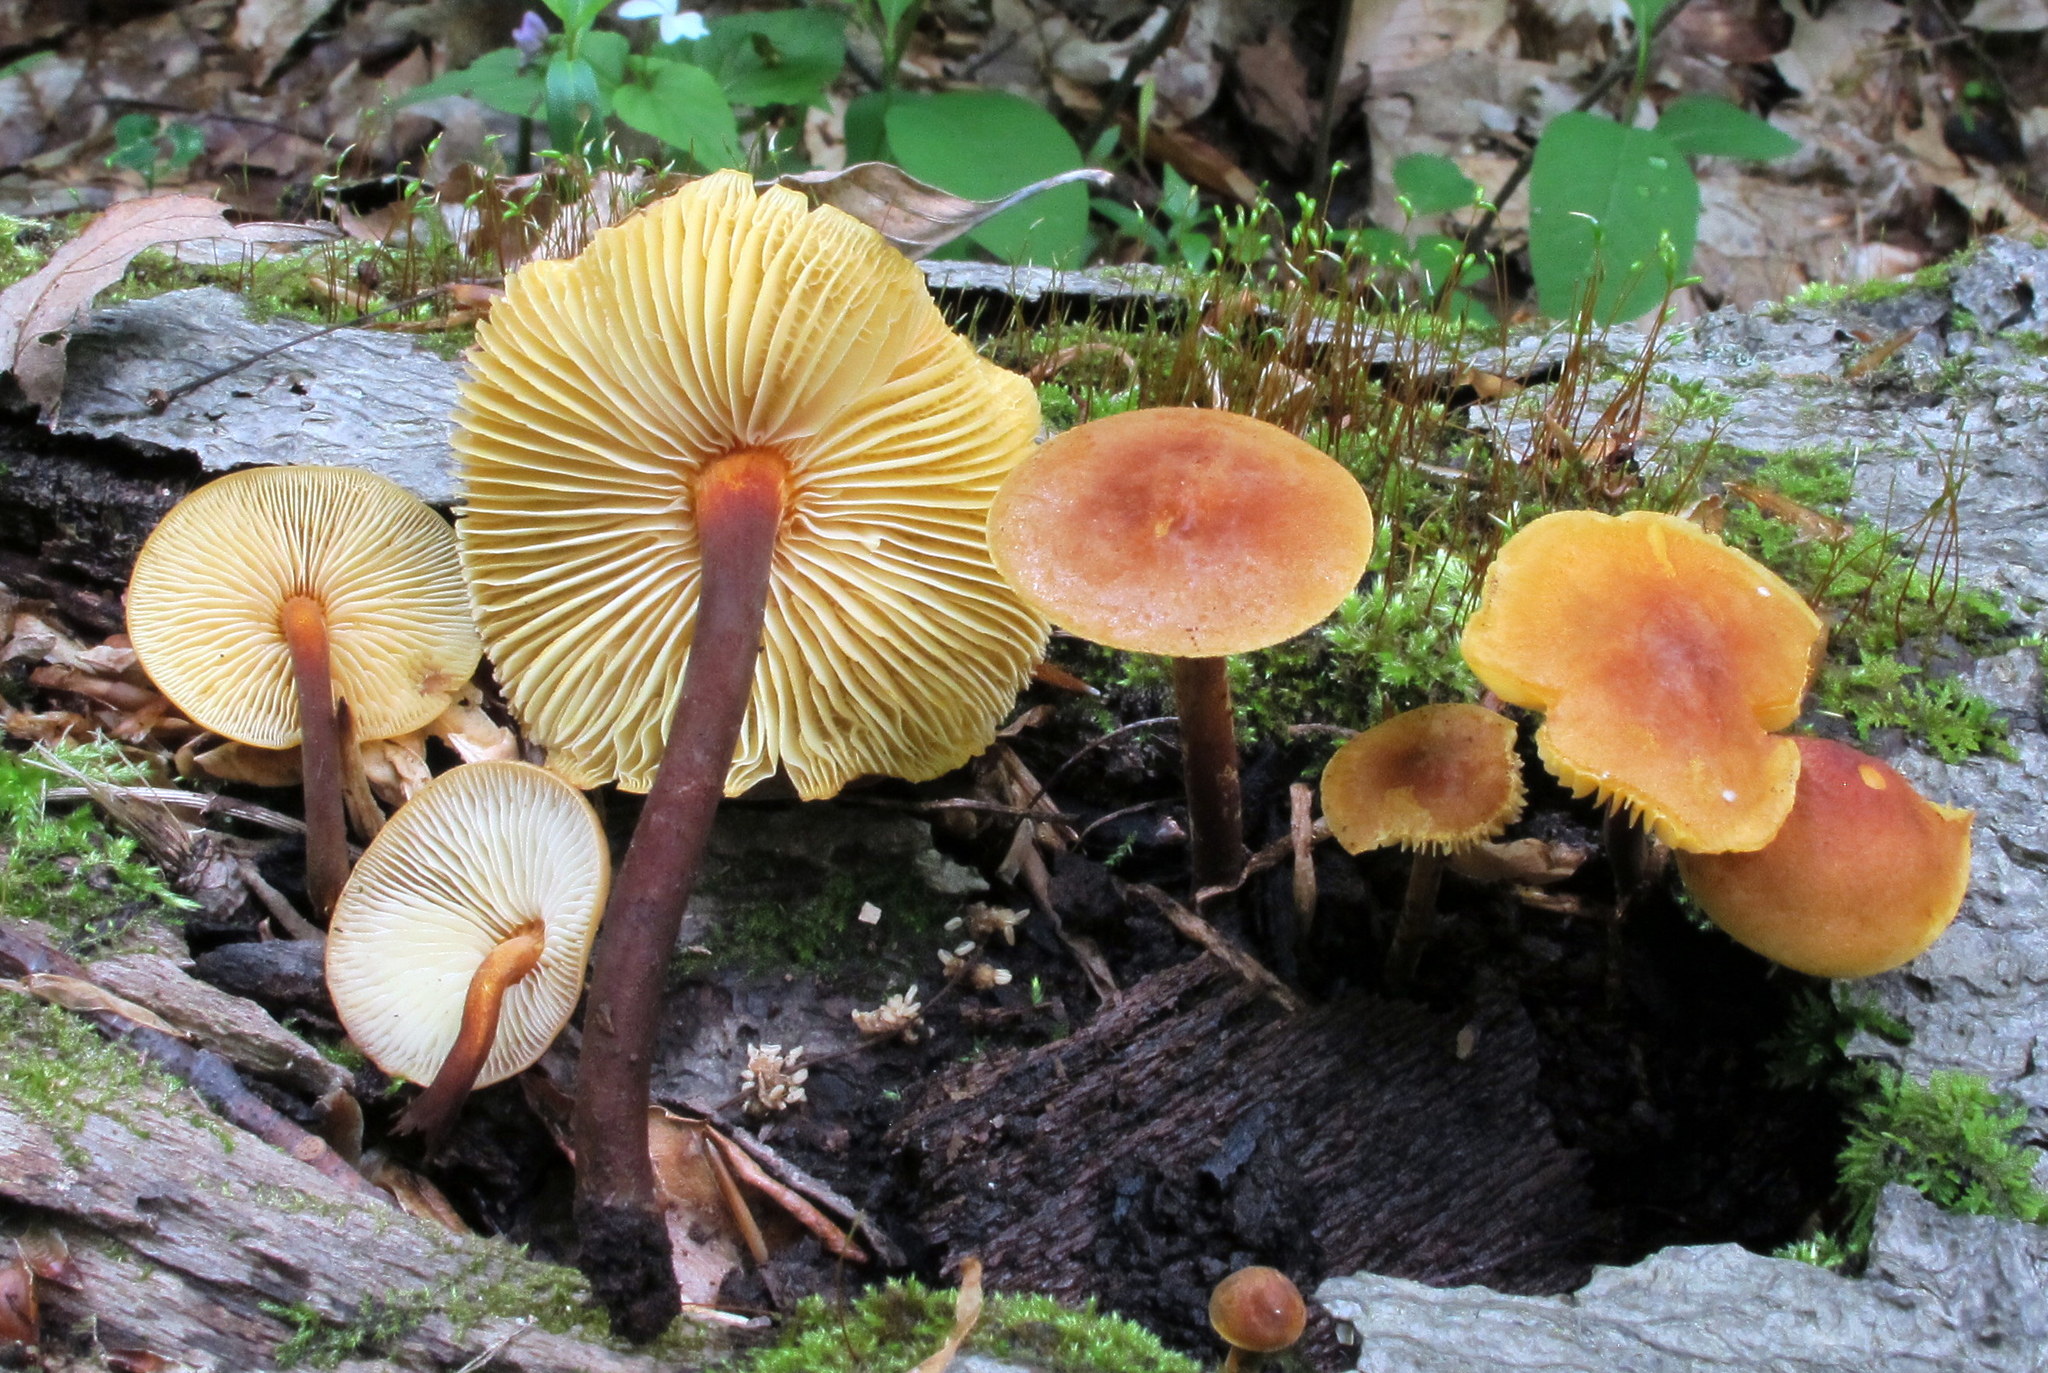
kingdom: Fungi
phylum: Basidiomycota
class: Agaricomycetes
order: Agaricales
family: Mycenaceae
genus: Xeromphalina
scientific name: Xeromphalina tenuipes
